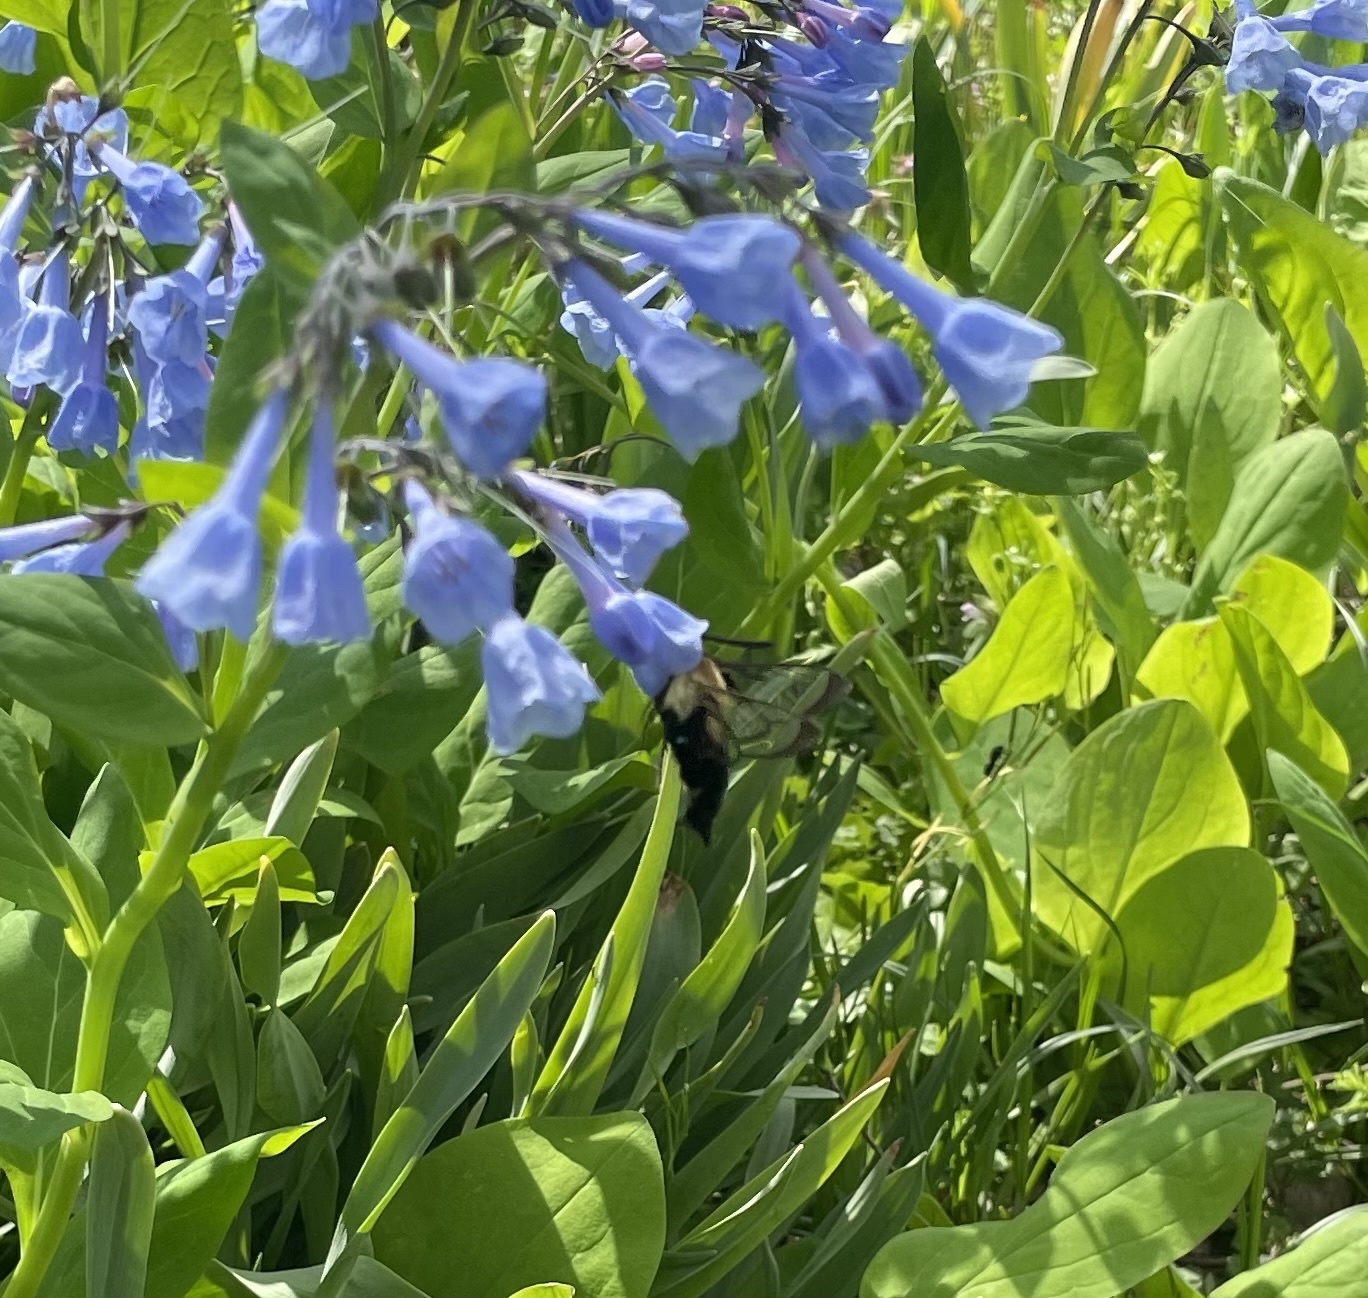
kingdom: Animalia
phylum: Arthropoda
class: Insecta
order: Lepidoptera
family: Sphingidae
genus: Hemaris
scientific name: Hemaris diffinis
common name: Bumblebee moth
